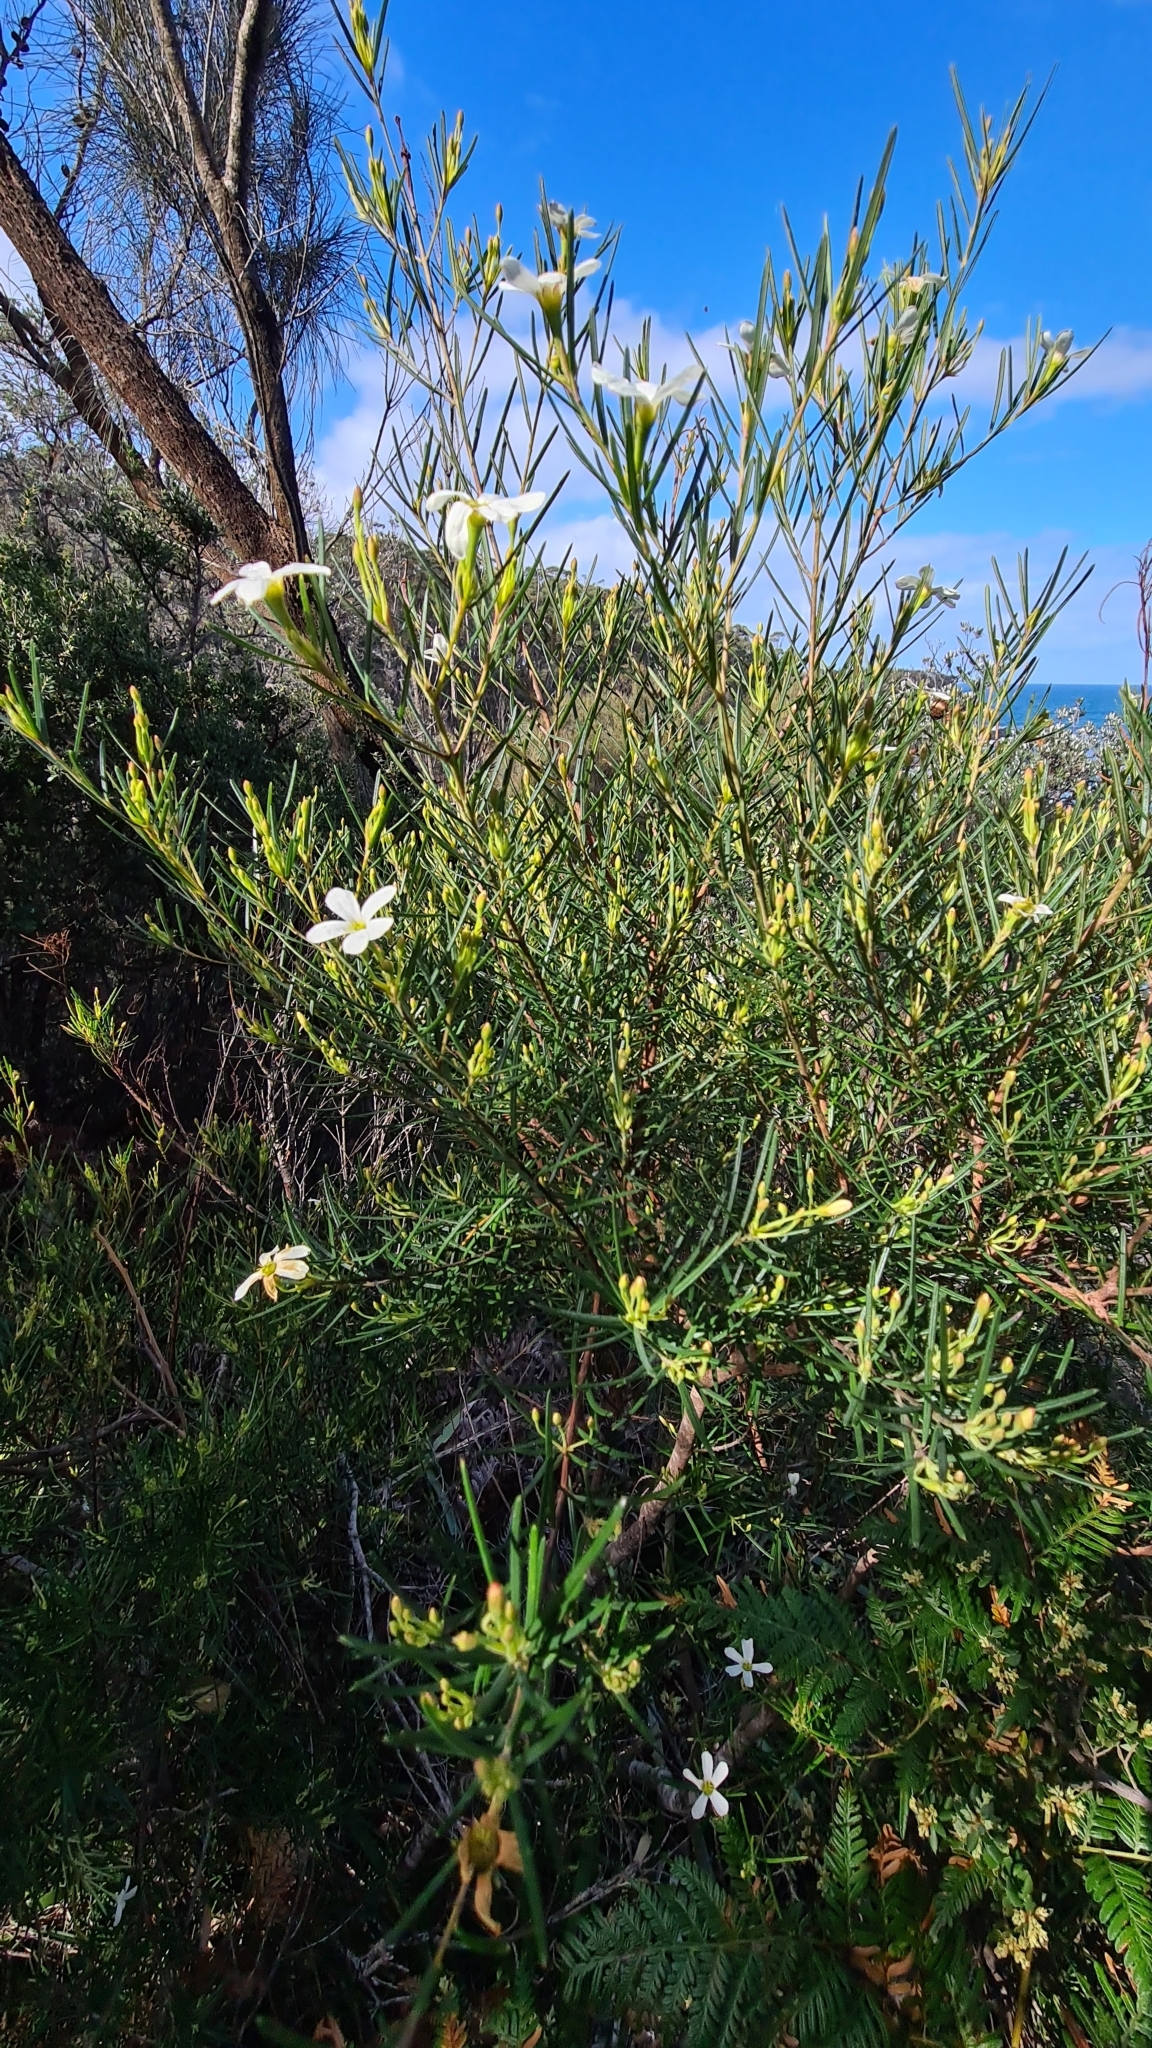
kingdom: Plantae
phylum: Tracheophyta
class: Magnoliopsida
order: Malpighiales
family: Euphorbiaceae
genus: Ricinocarpos
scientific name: Ricinocarpos pinifolius
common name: Weddingbush
